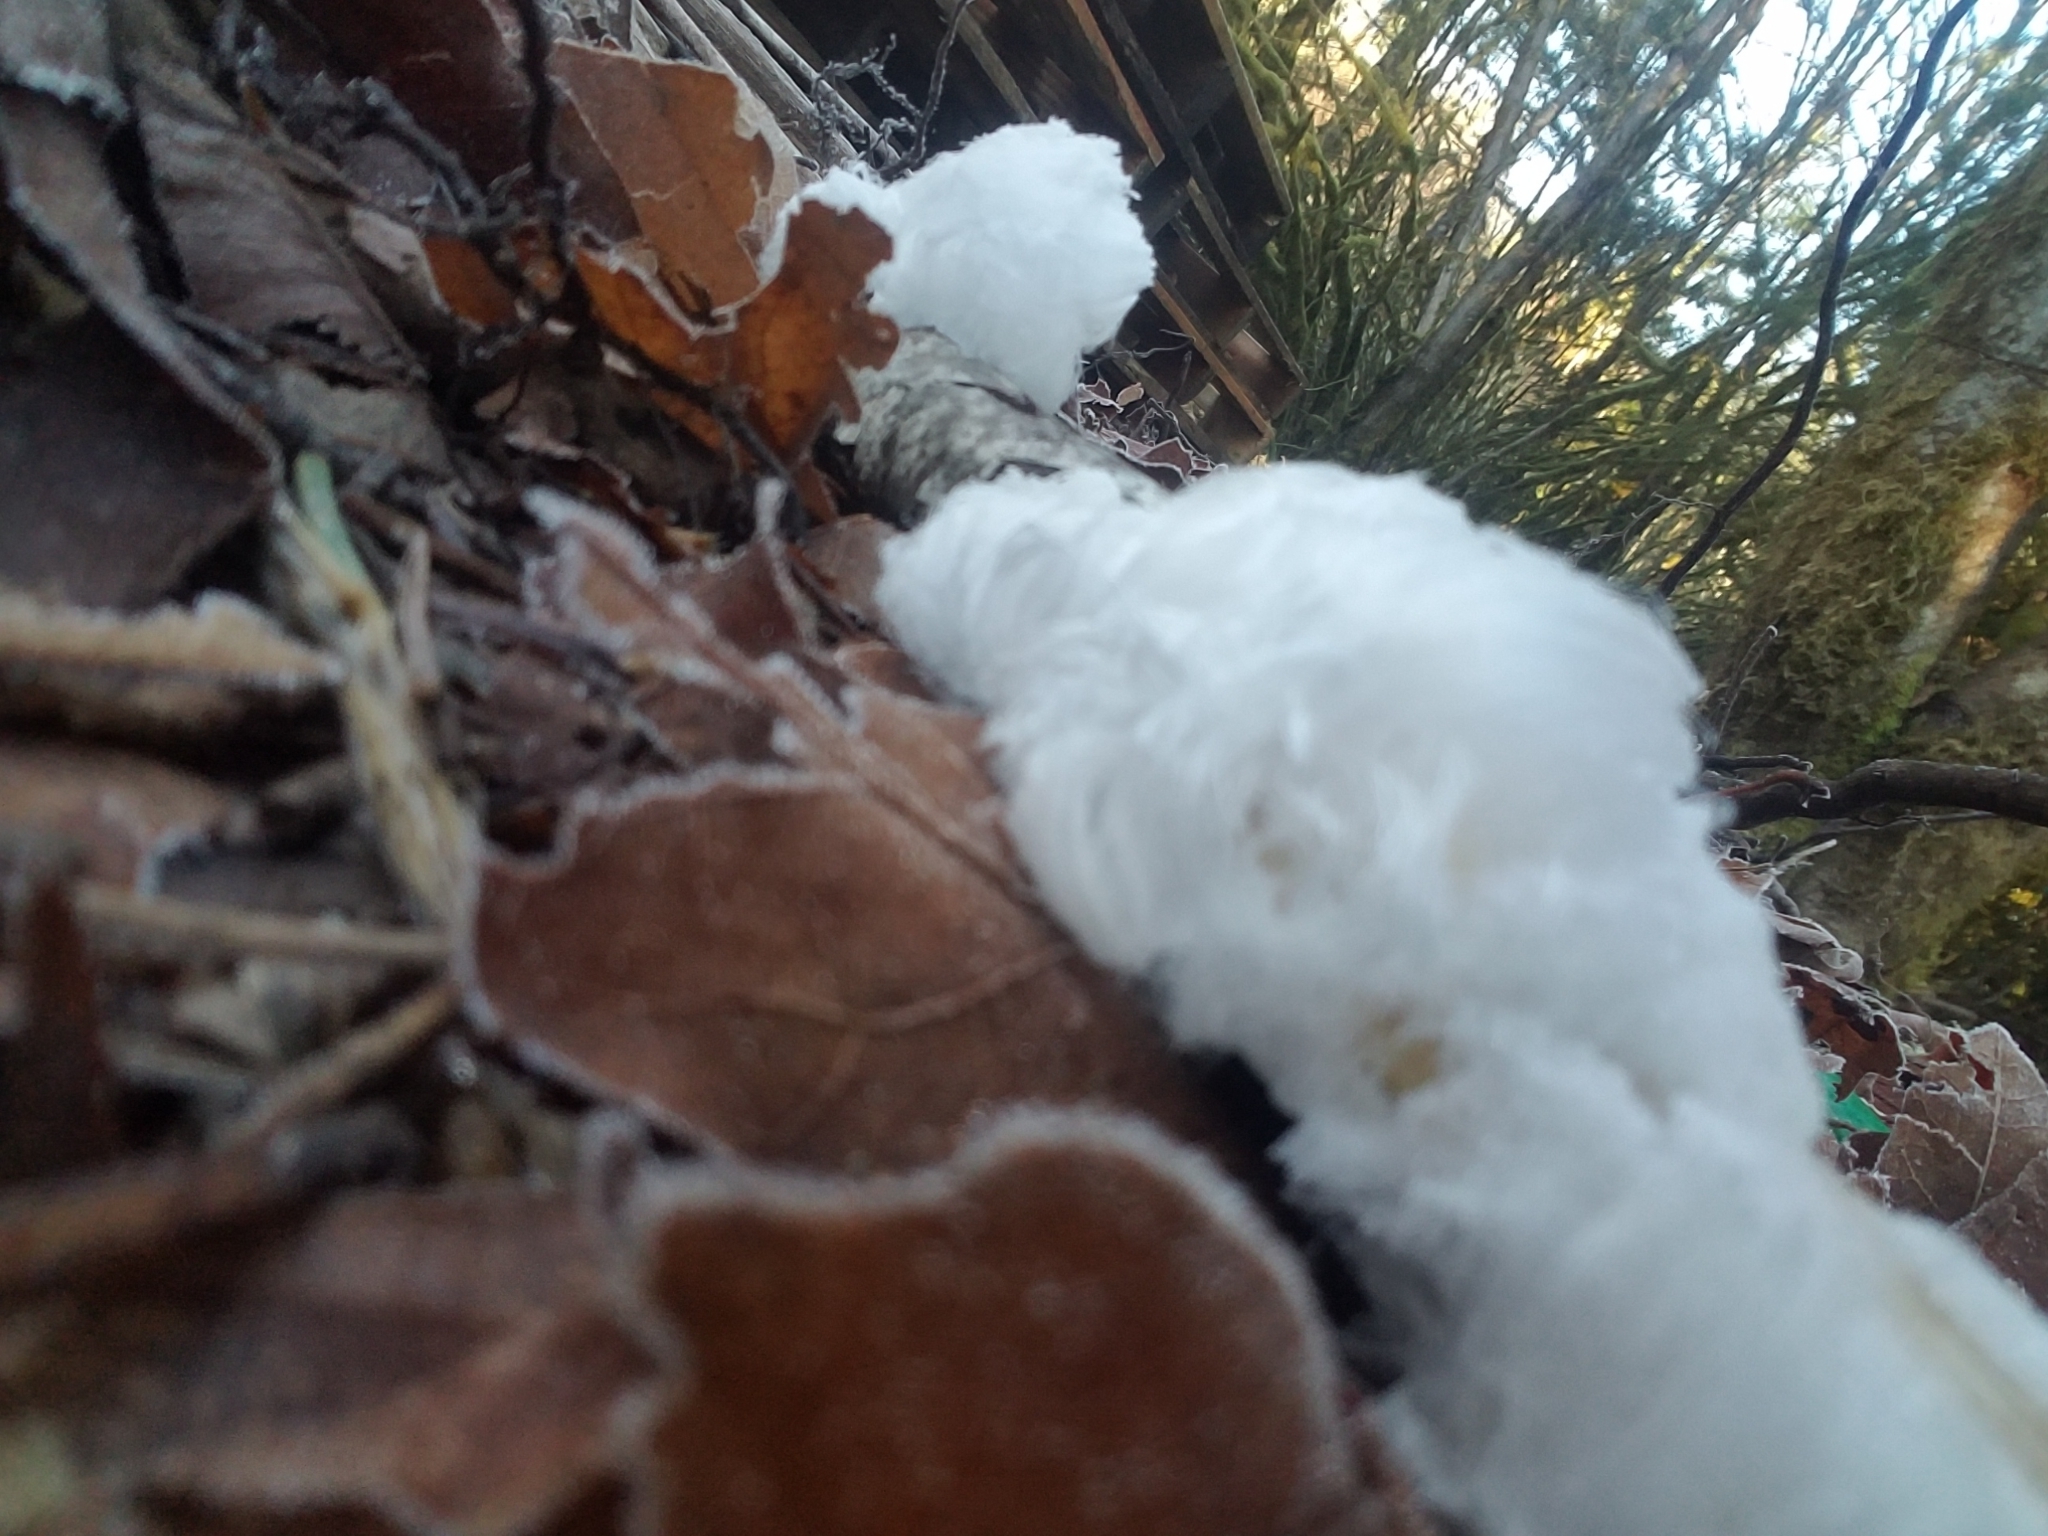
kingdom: Fungi
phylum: Basidiomycota
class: Agaricomycetes
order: Auriculariales
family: Auriculariaceae
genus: Exidiopsis
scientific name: Exidiopsis effusa
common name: Hair ice crust
